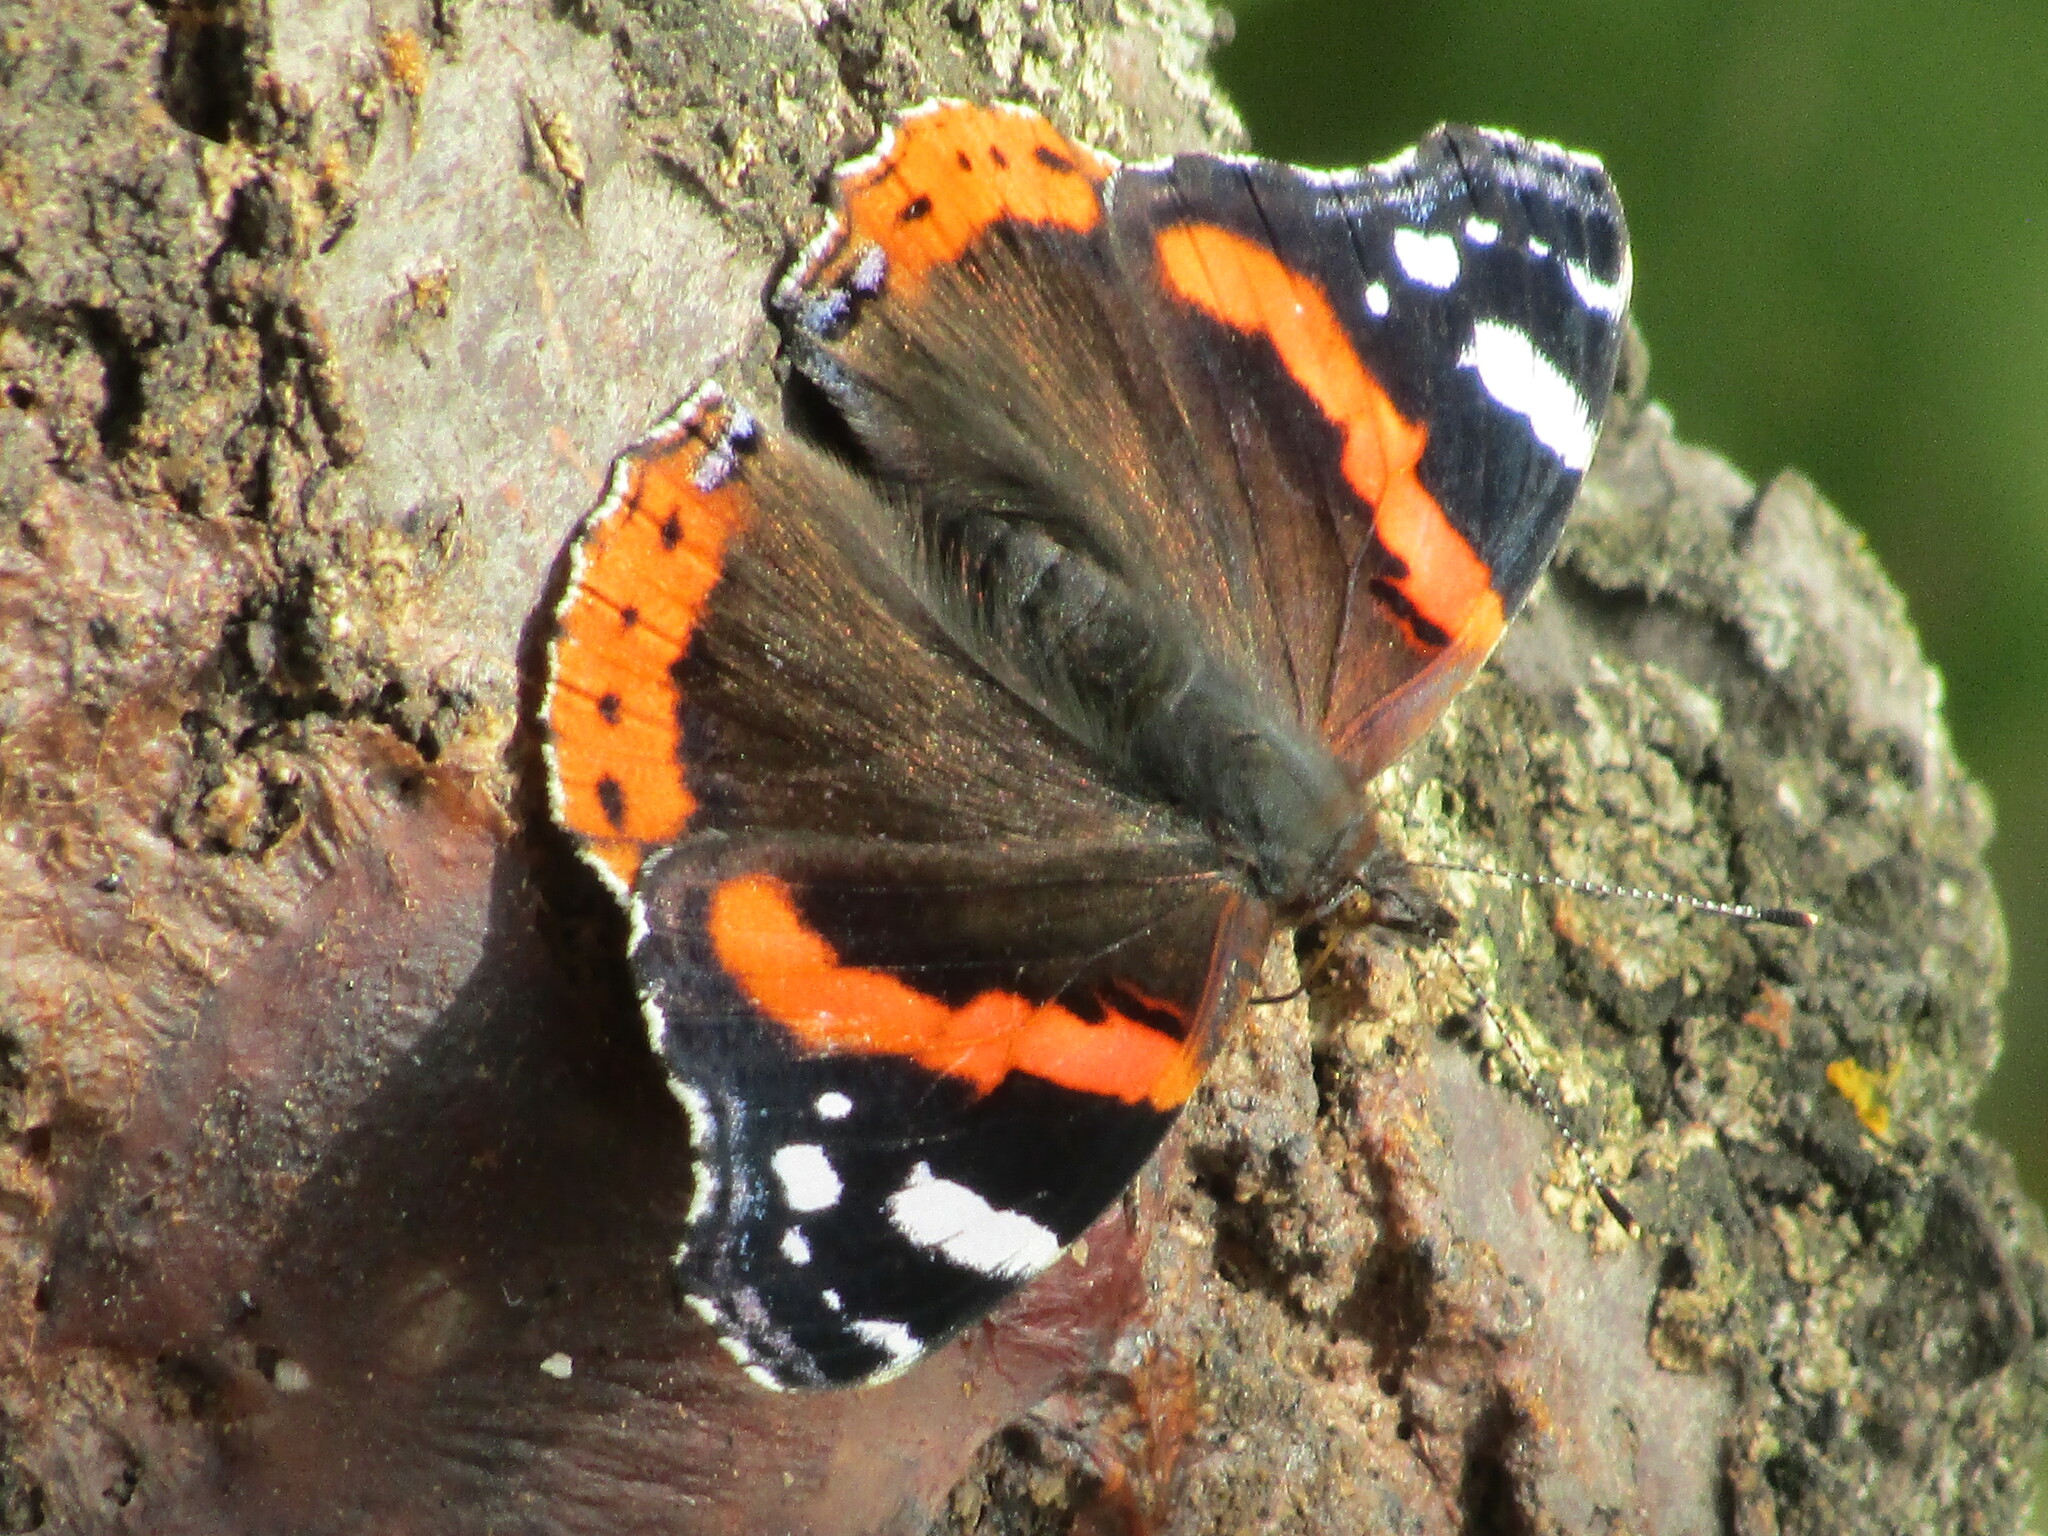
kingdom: Animalia
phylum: Arthropoda
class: Insecta
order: Lepidoptera
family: Nymphalidae
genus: Vanessa
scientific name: Vanessa atalanta
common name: Red admiral
